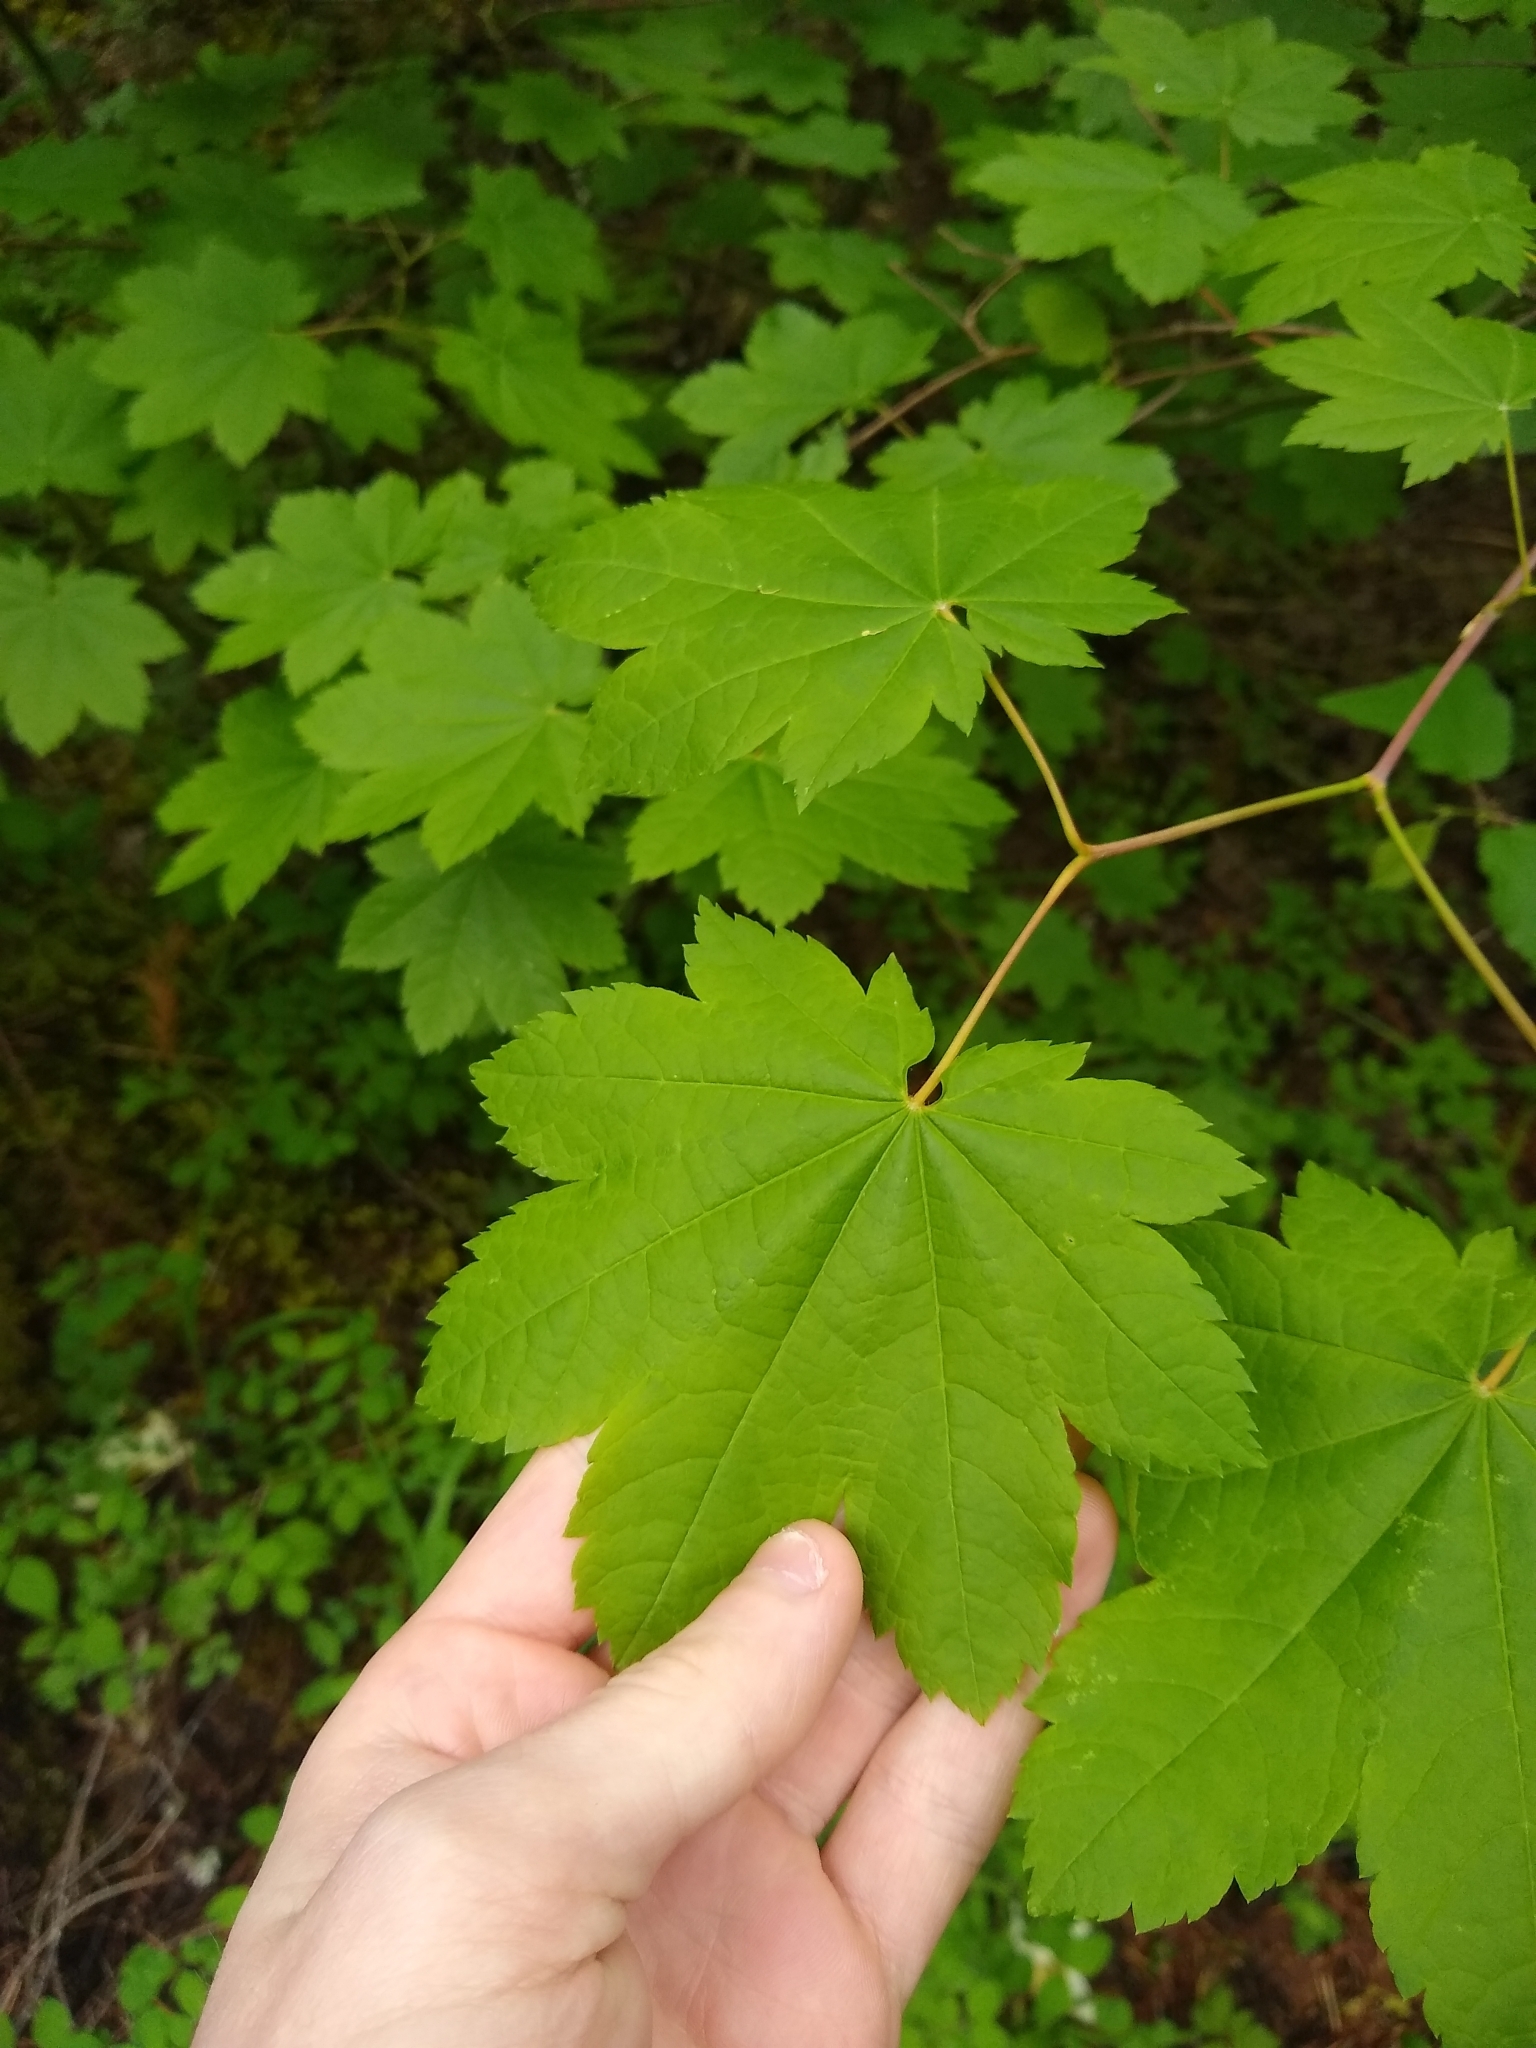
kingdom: Plantae
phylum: Tracheophyta
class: Magnoliopsida
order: Sapindales
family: Sapindaceae
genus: Acer
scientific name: Acer circinatum
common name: Vine maple
